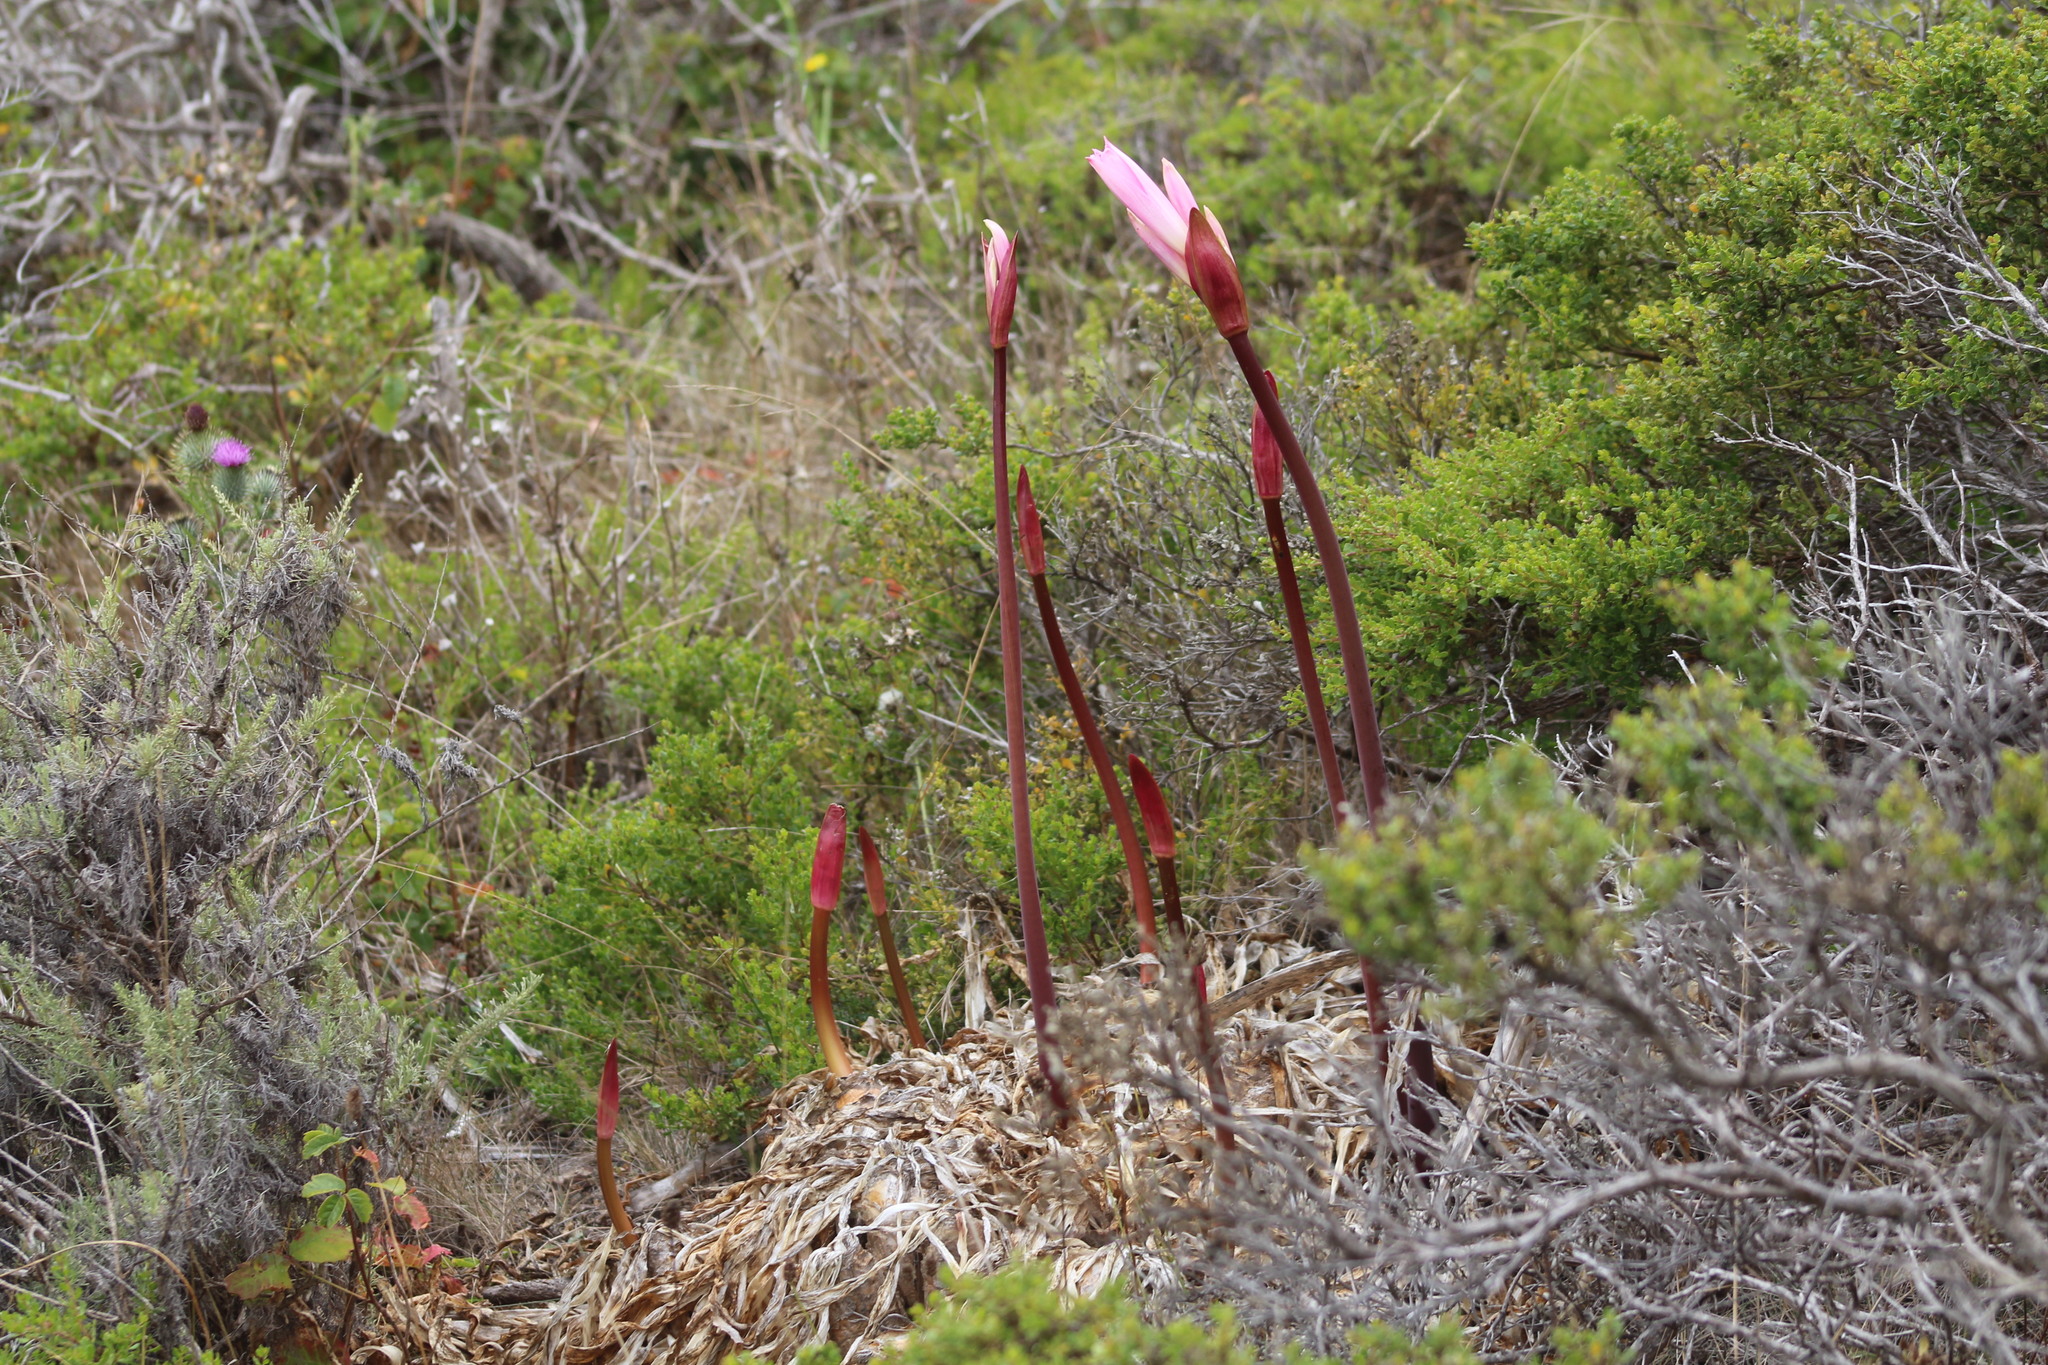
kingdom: Plantae
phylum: Tracheophyta
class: Liliopsida
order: Asparagales
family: Amaryllidaceae
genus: Amaryllis
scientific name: Amaryllis belladonna
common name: Jersey lily
